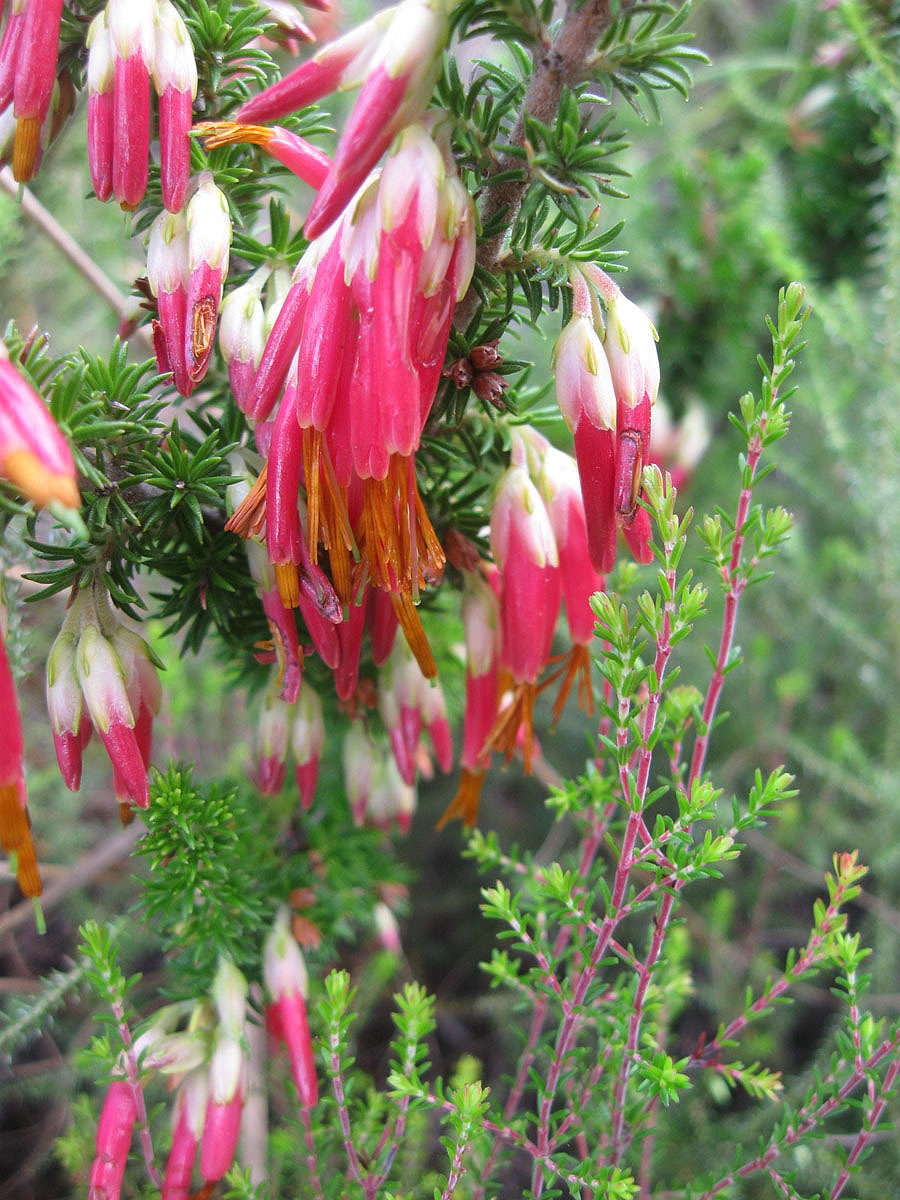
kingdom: Plantae
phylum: Tracheophyta
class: Magnoliopsida
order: Ericales
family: Ericaceae
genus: Erica
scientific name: Erica coccinea
